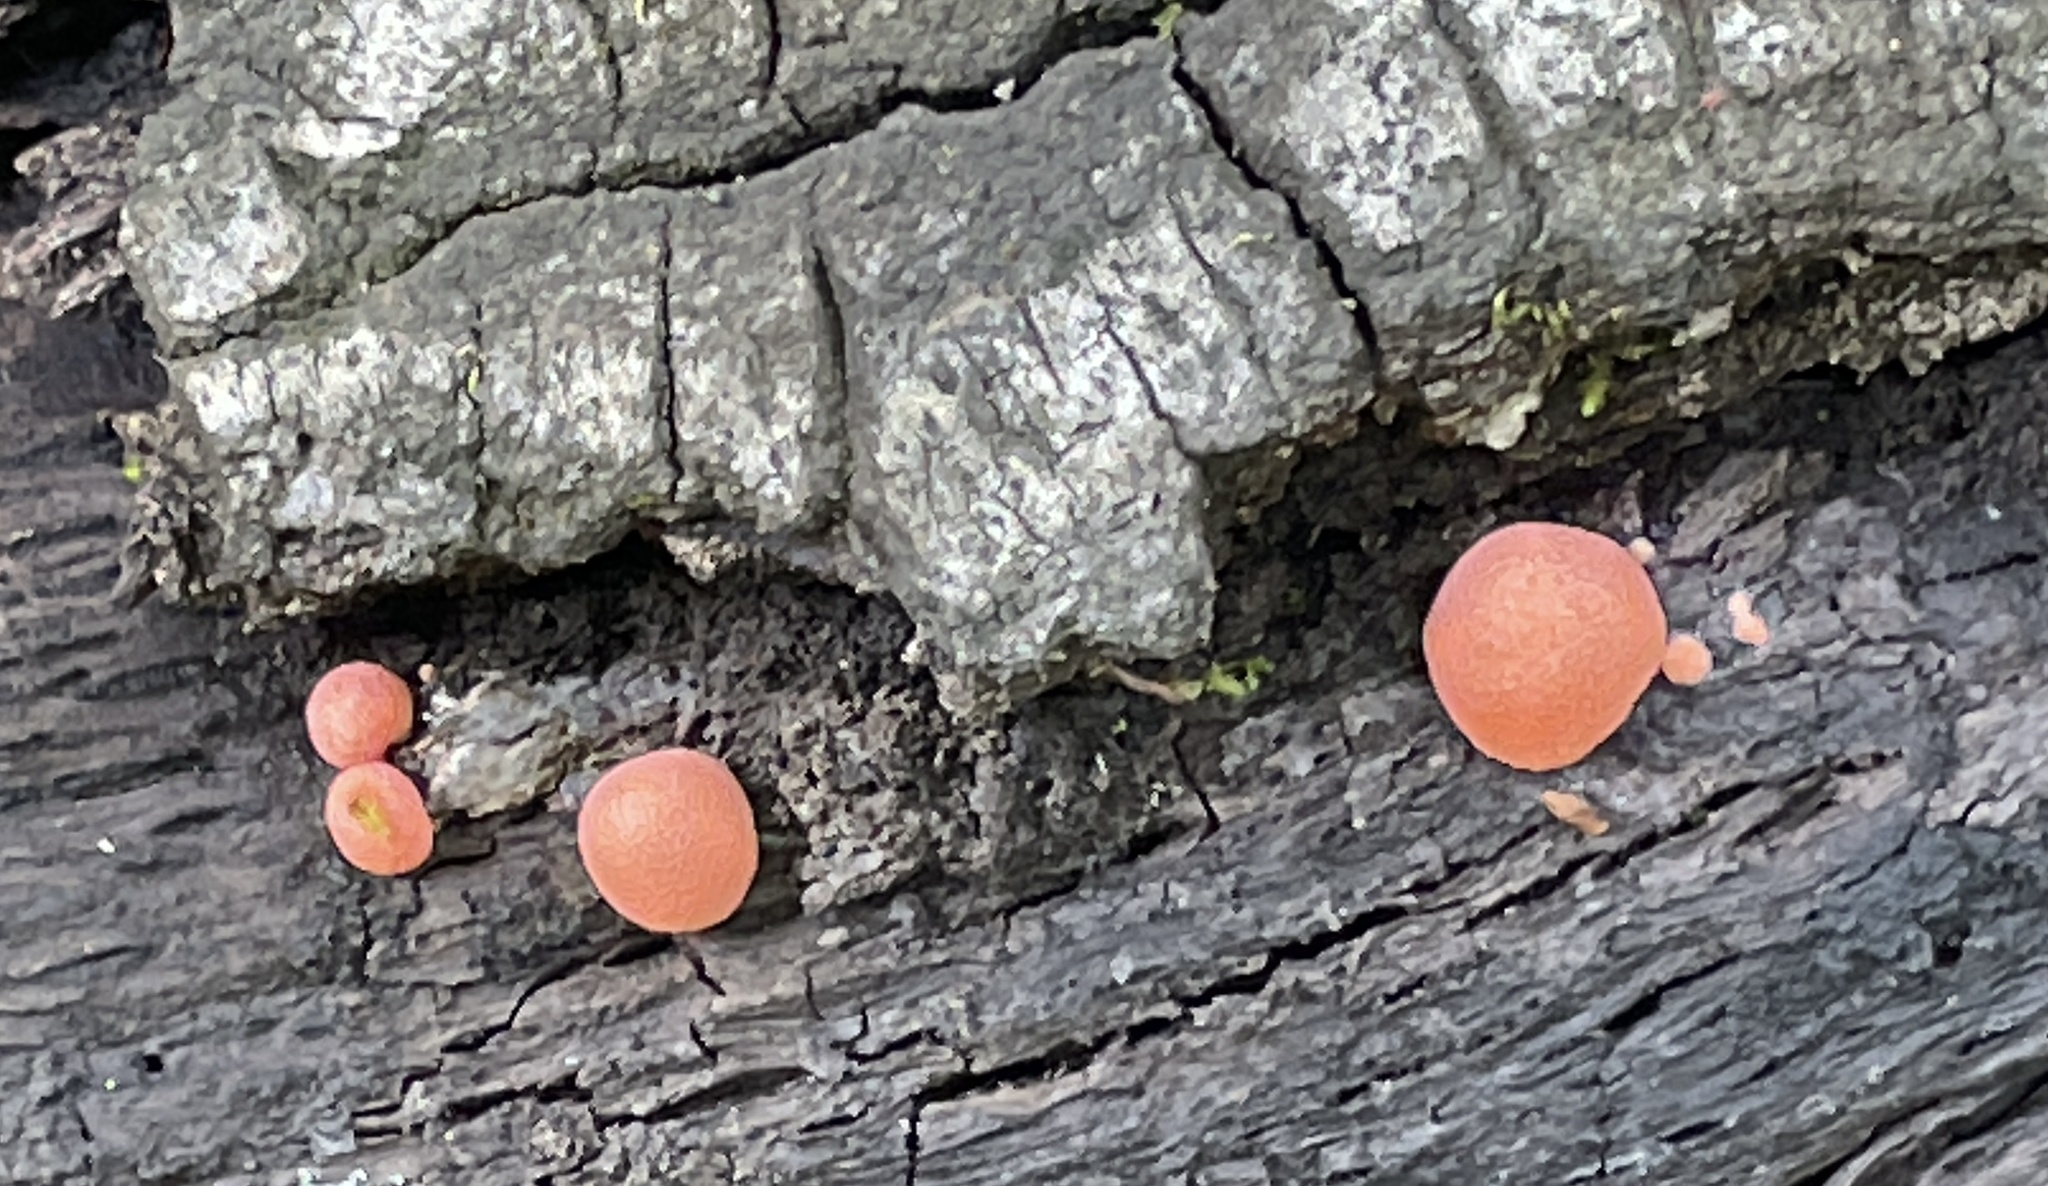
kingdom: Protozoa
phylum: Mycetozoa
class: Myxomycetes
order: Cribrariales
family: Tubiferaceae
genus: Lycogala
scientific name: Lycogala epidendrum
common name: Wolf's milk
